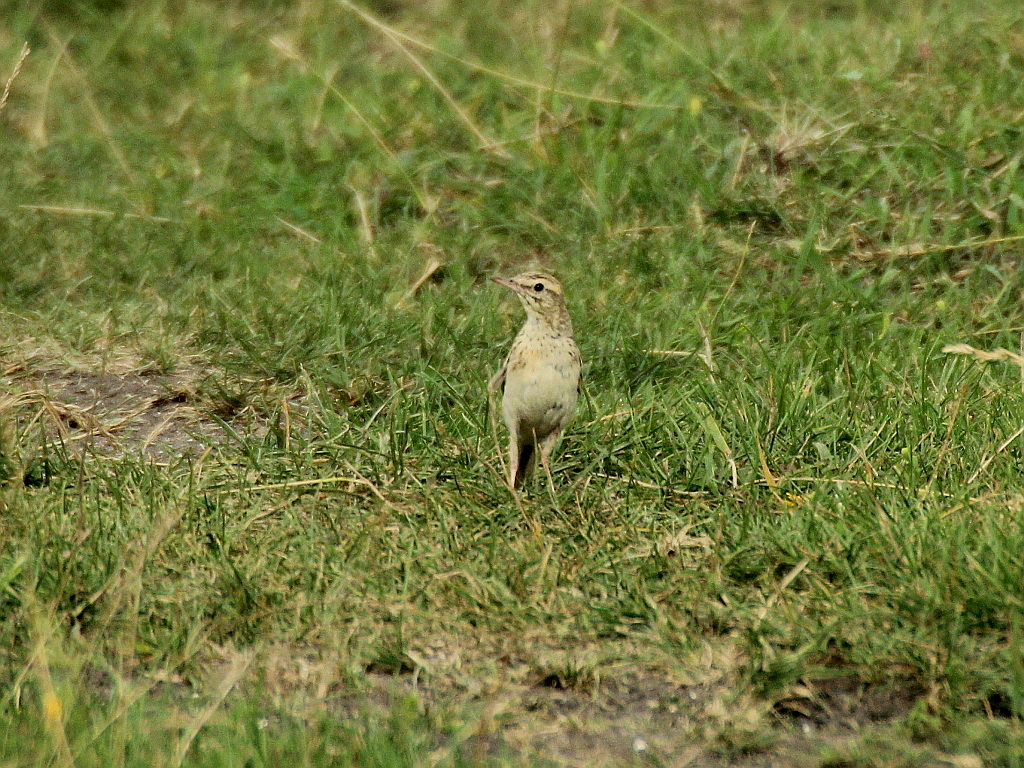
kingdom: Animalia
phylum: Chordata
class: Aves
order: Passeriformes
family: Motacillidae
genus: Anthus
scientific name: Anthus campestris
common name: Tawny pipit
